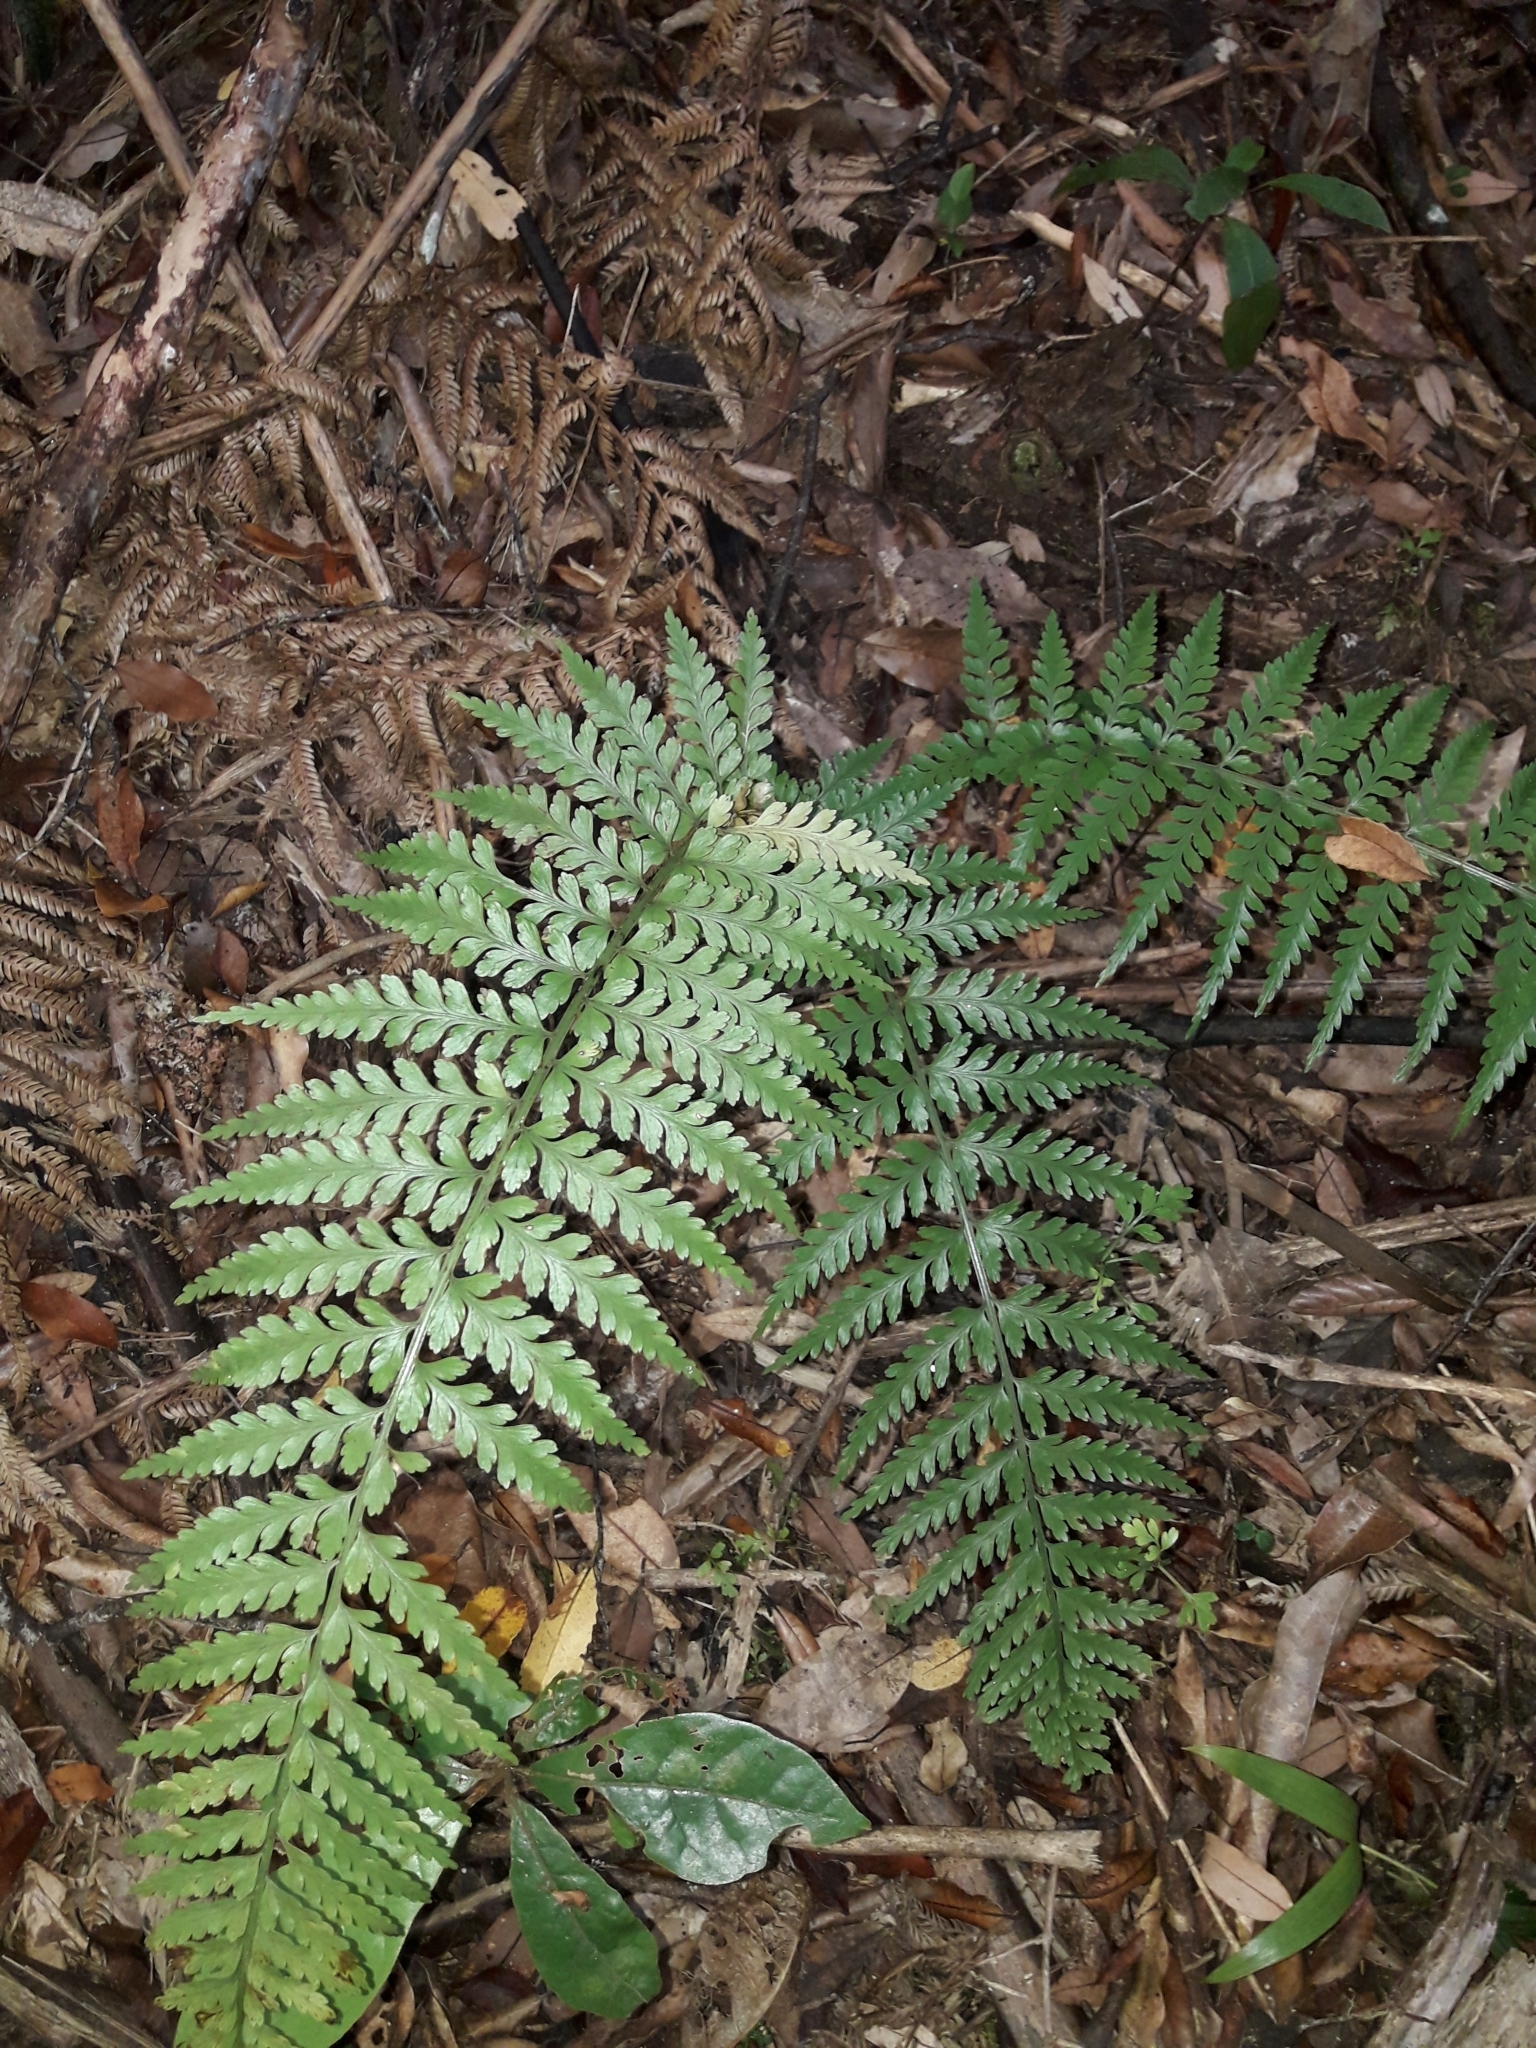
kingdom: Plantae
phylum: Tracheophyta
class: Polypodiopsida
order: Polypodiales
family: Aspleniaceae
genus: Asplenium
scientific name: Asplenium bulbiferum
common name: Mother fern
